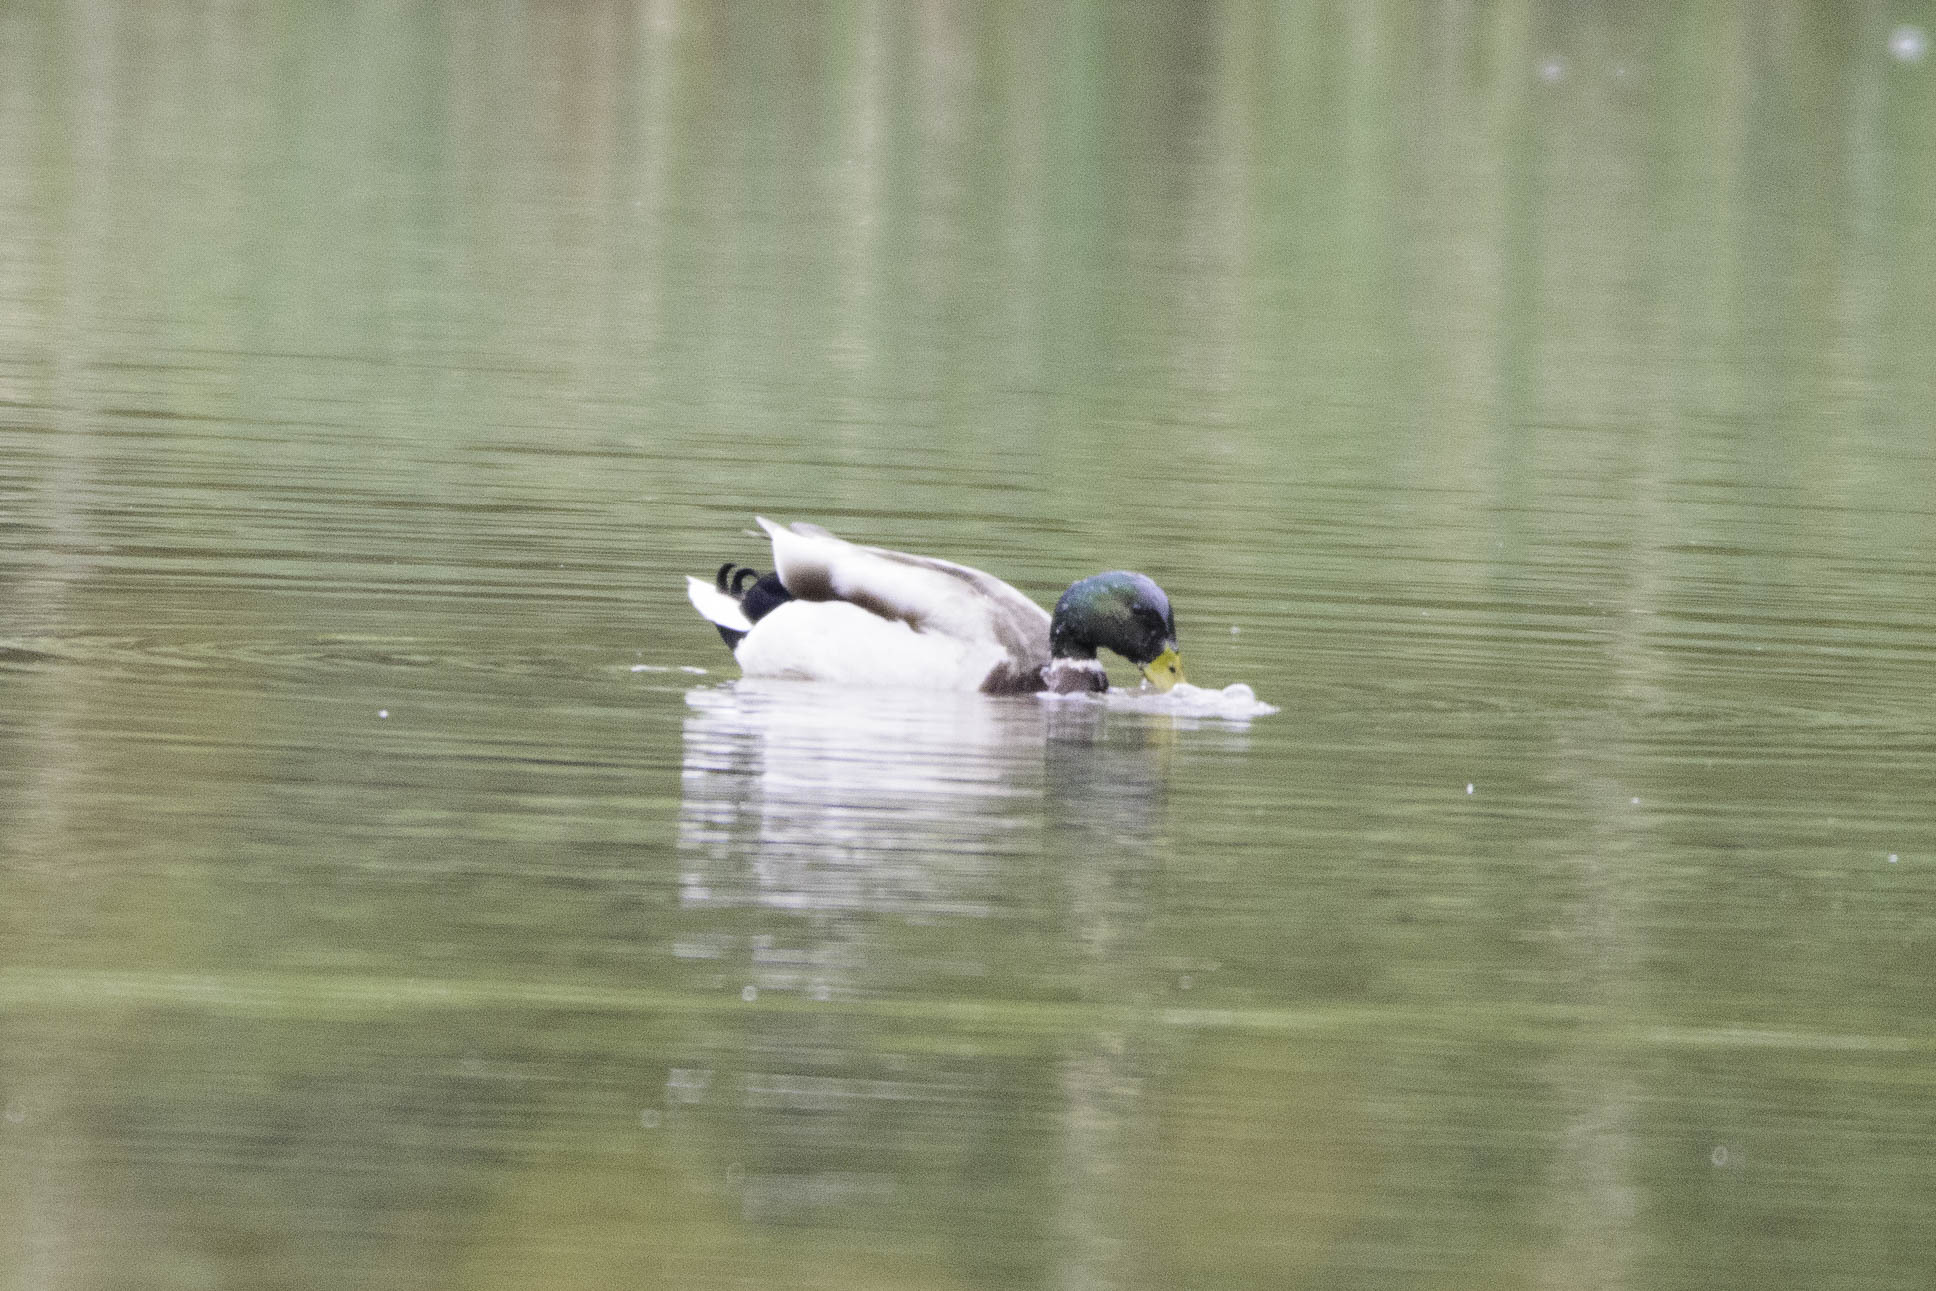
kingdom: Animalia
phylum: Chordata
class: Aves
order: Anseriformes
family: Anatidae
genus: Anas
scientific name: Anas platyrhynchos
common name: Mallard
